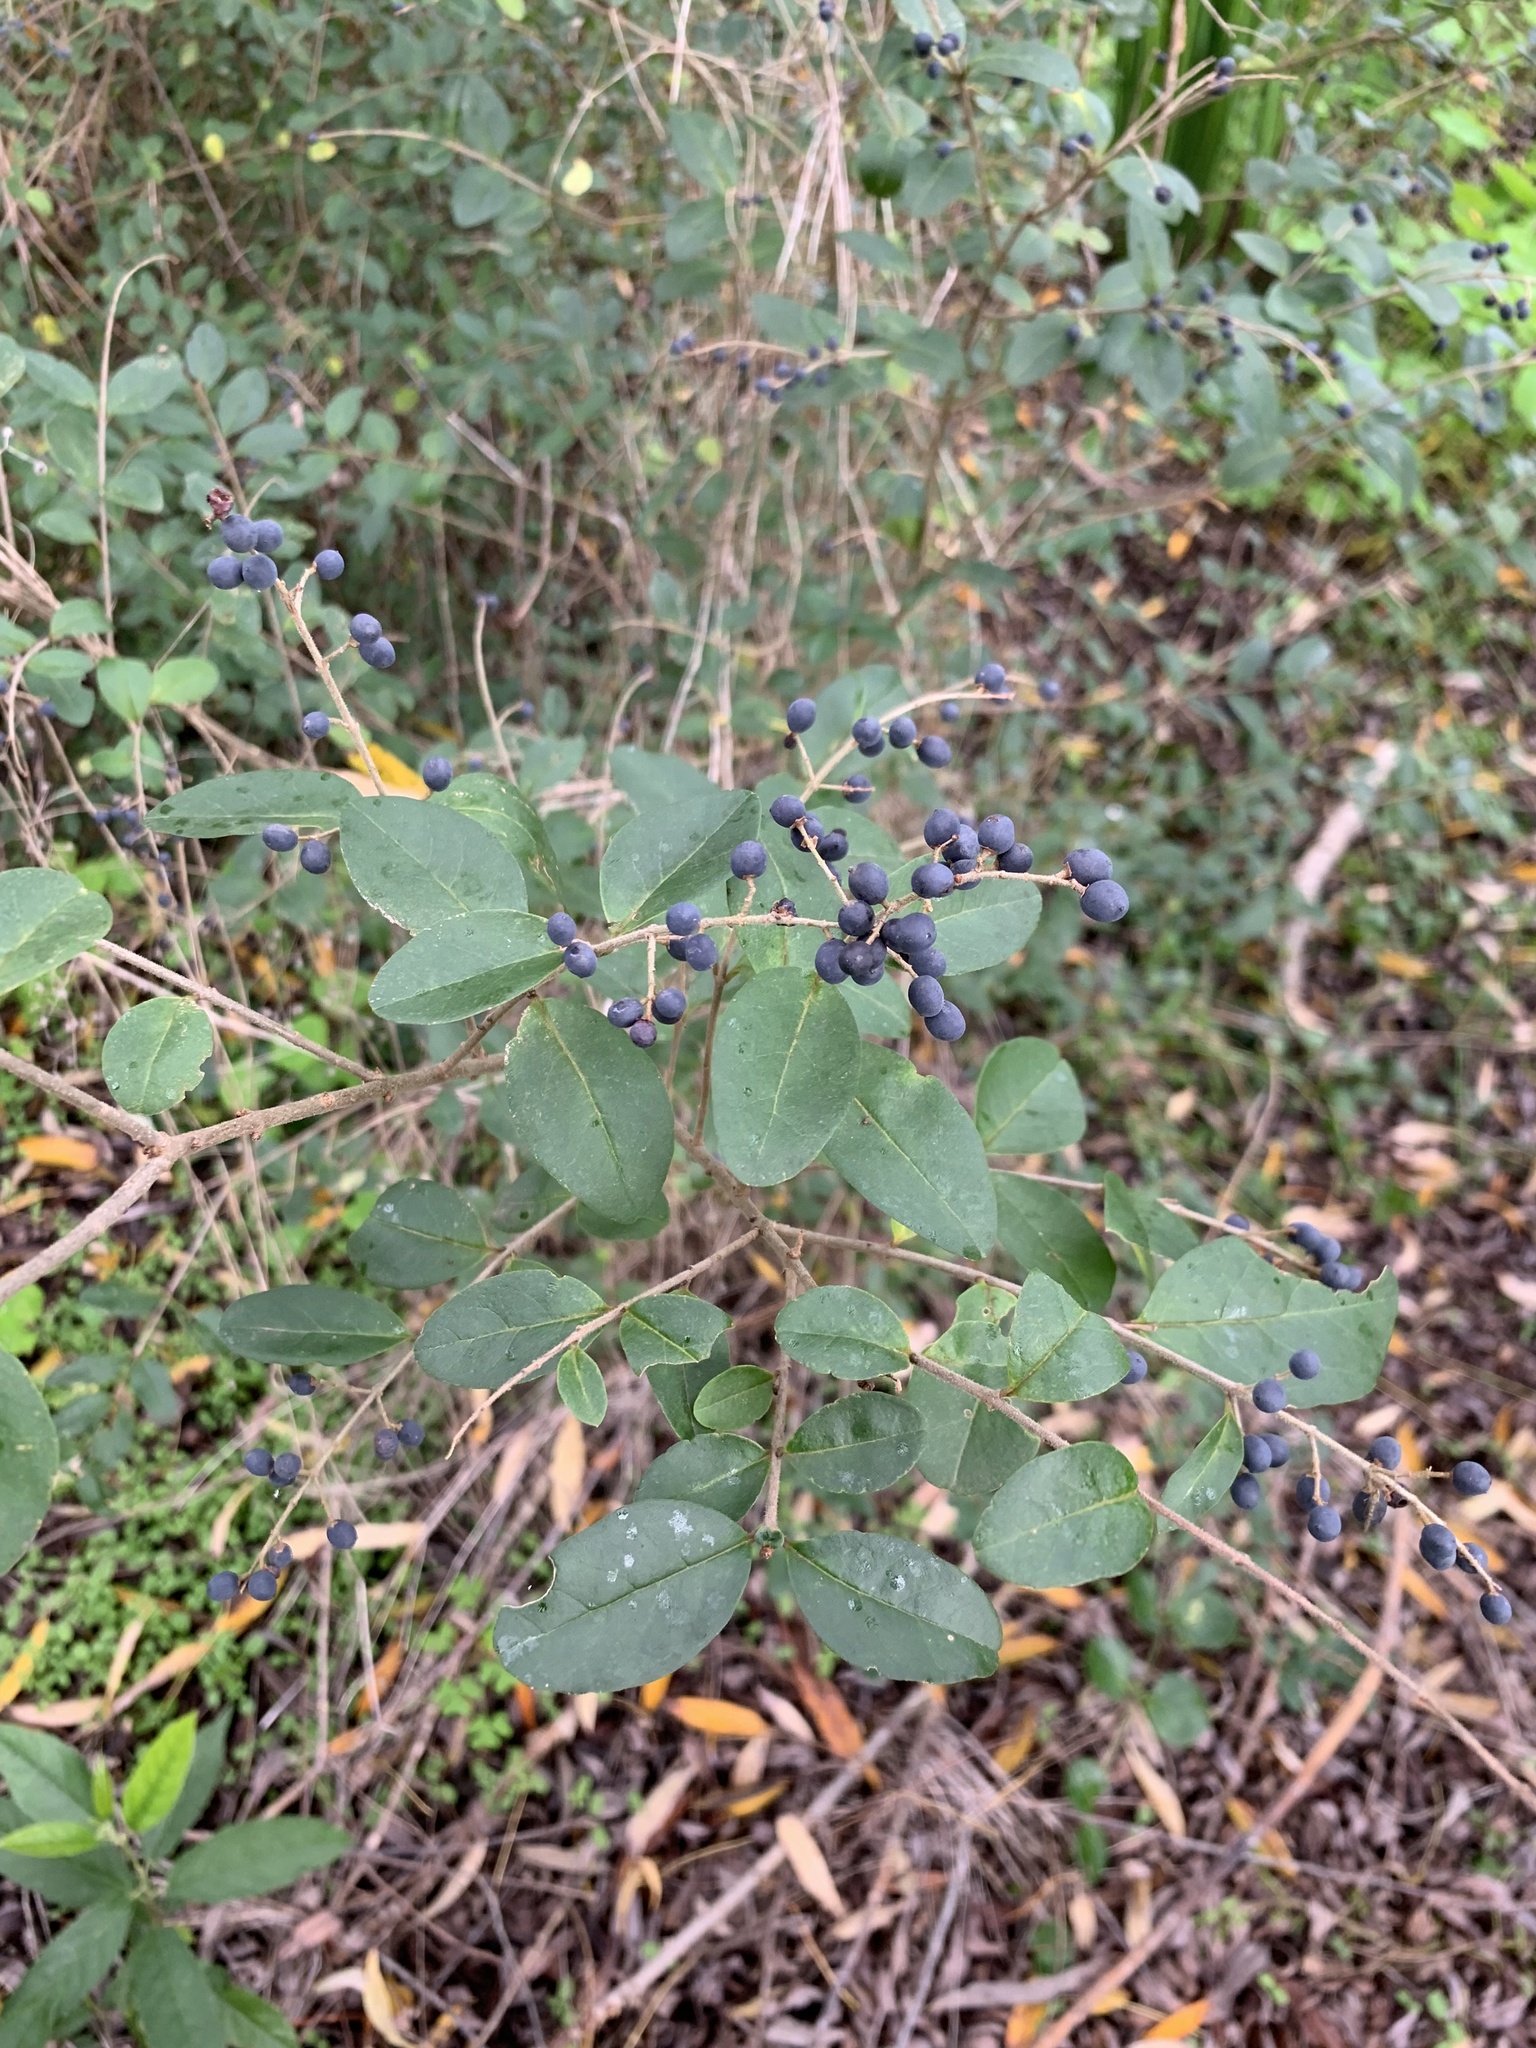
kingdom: Plantae
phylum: Tracheophyta
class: Magnoliopsida
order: Lamiales
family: Oleaceae
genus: Ligustrum
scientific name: Ligustrum sinense
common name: Chinese privet
